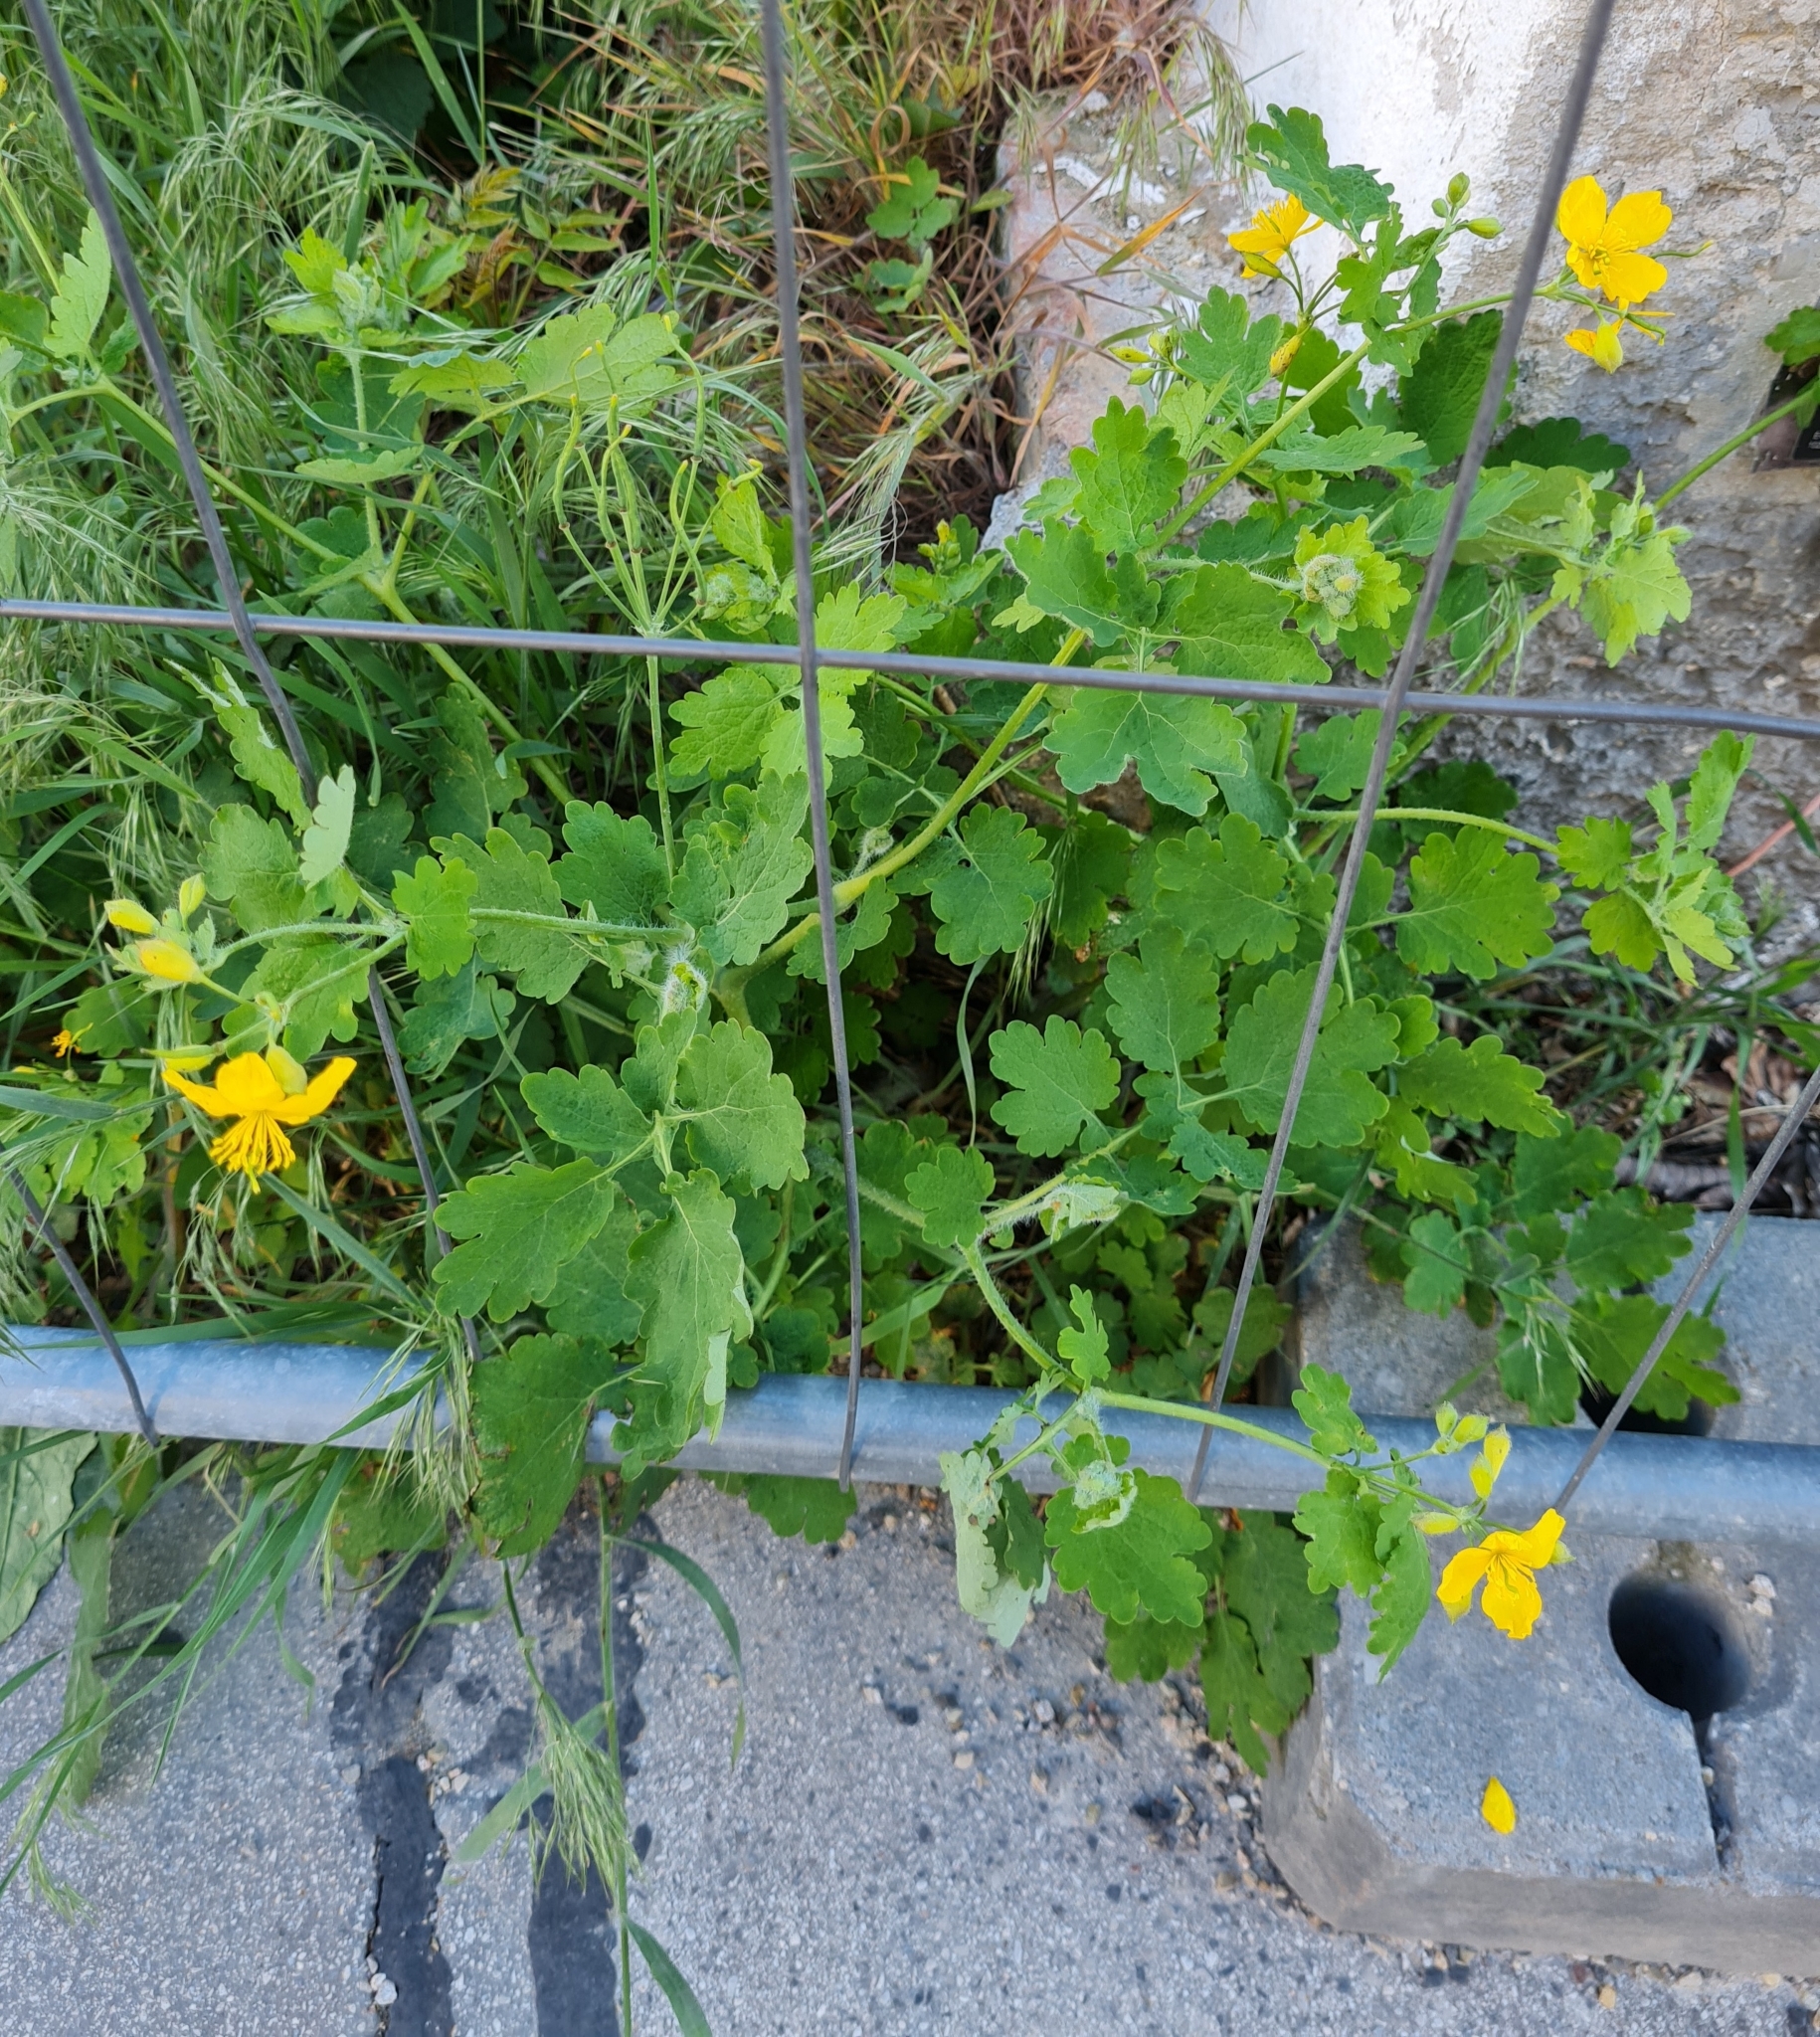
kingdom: Plantae
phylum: Tracheophyta
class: Magnoliopsida
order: Ranunculales
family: Papaveraceae
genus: Chelidonium
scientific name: Chelidonium majus
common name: Greater celandine
